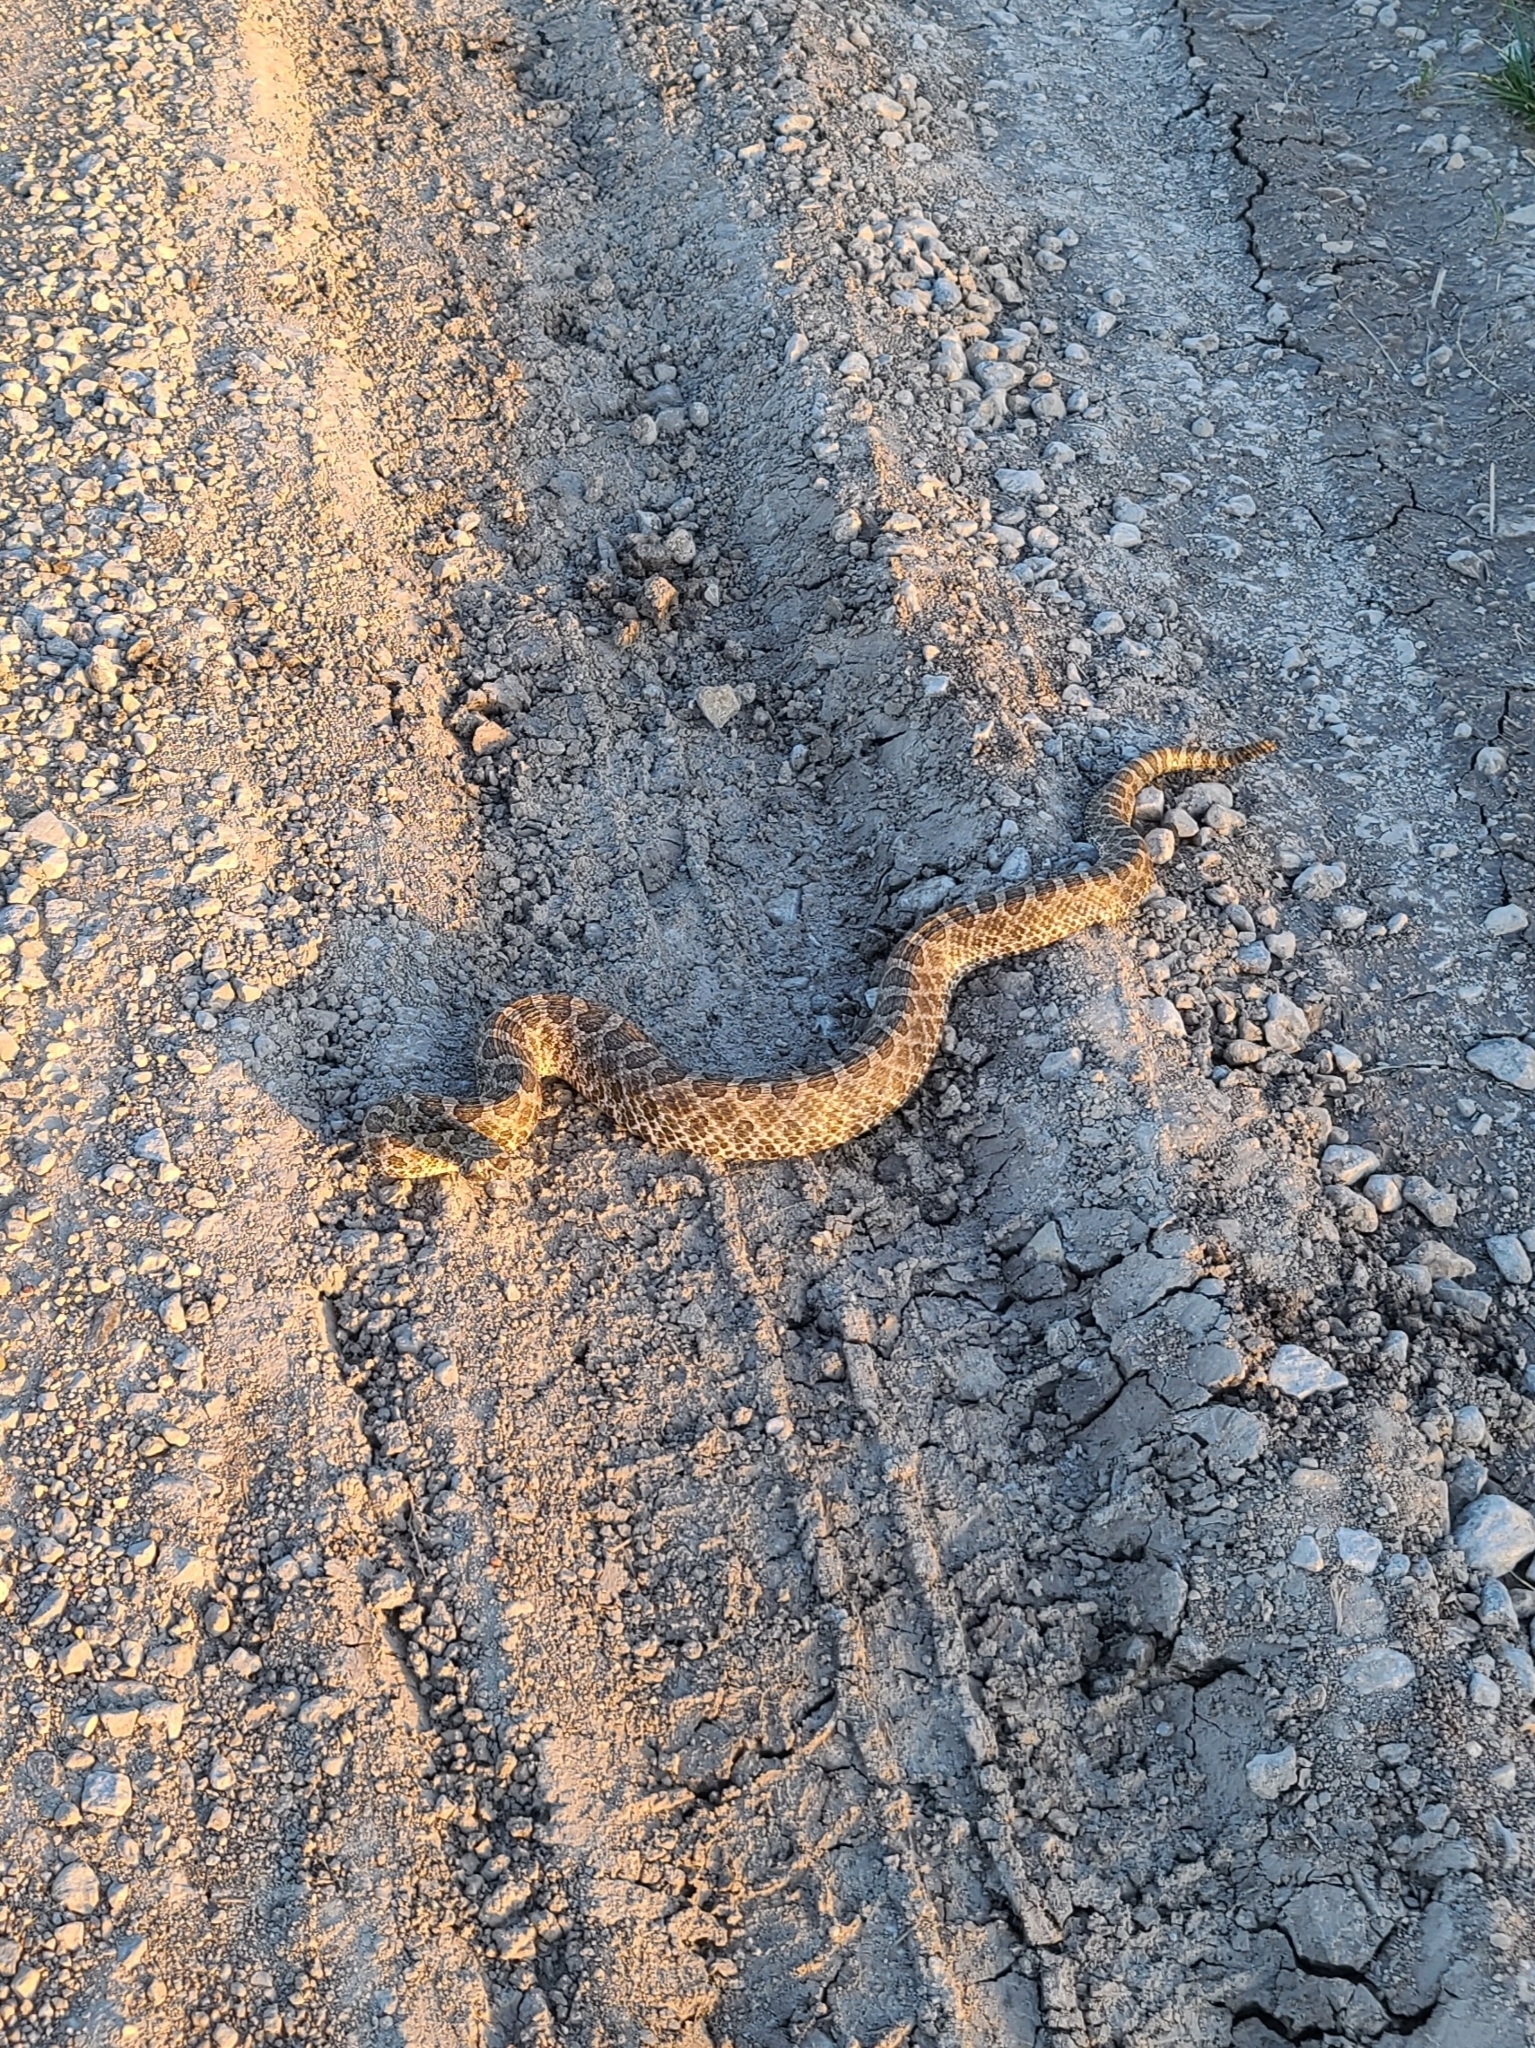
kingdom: Animalia
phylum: Chordata
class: Squamata
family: Viperidae
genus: Sistrurus
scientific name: Sistrurus tergeminus
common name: Desert massasauga [edwardsi]
